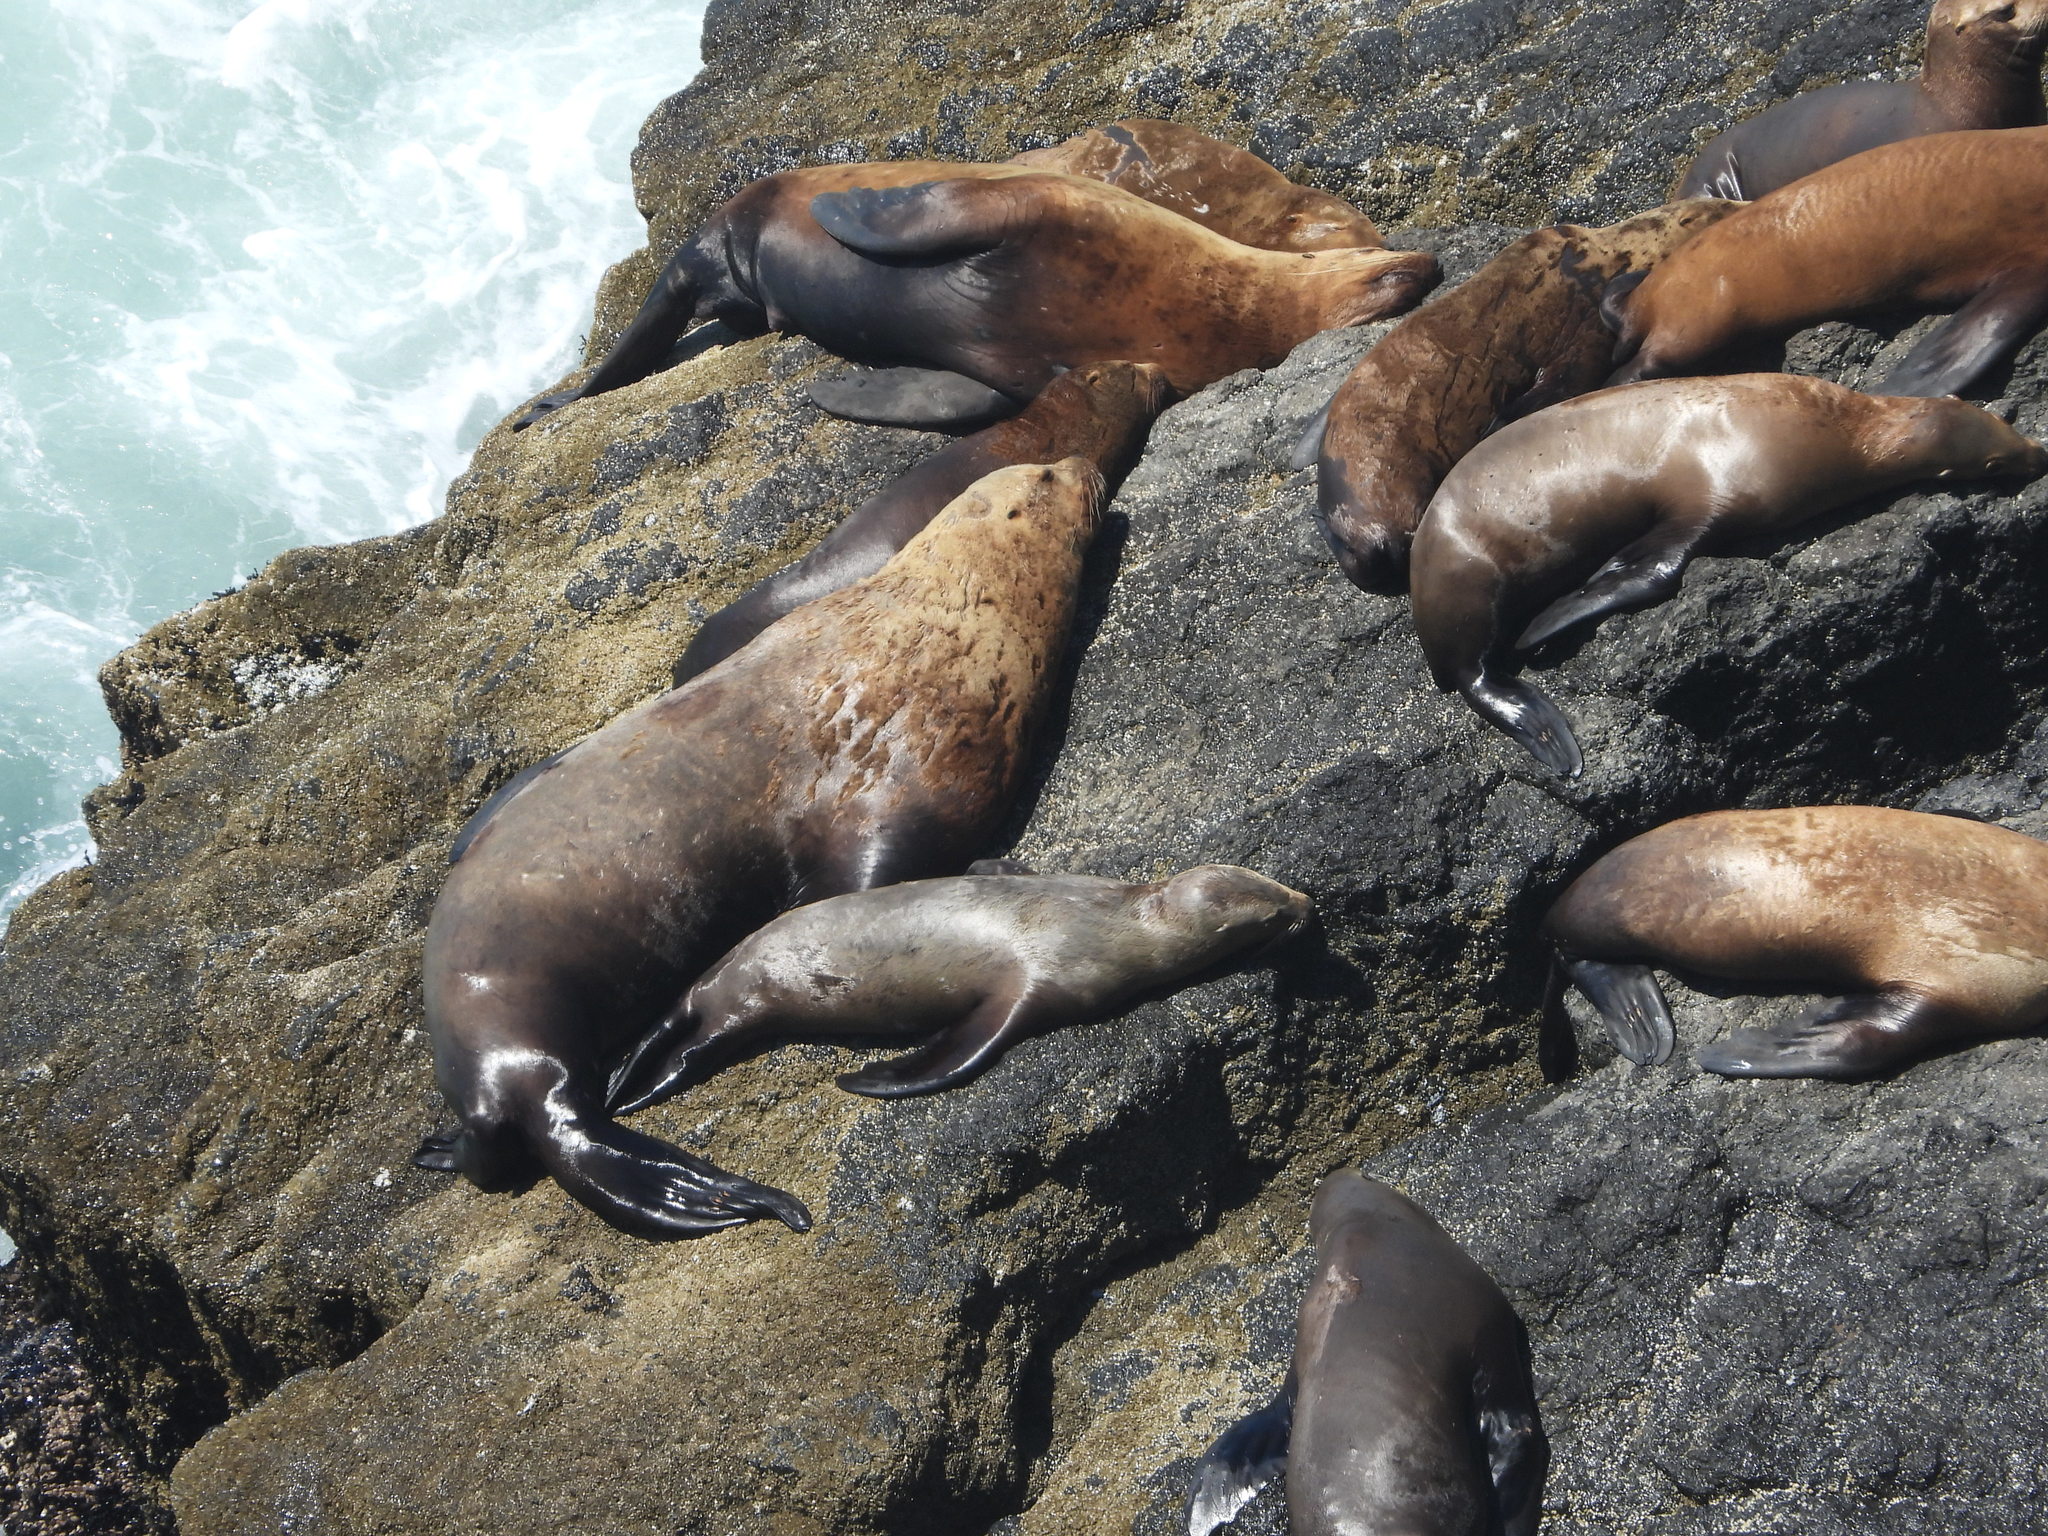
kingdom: Animalia
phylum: Chordata
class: Mammalia
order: Carnivora
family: Otariidae
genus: Eumetopias
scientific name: Eumetopias jubatus
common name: Steller sea lion
